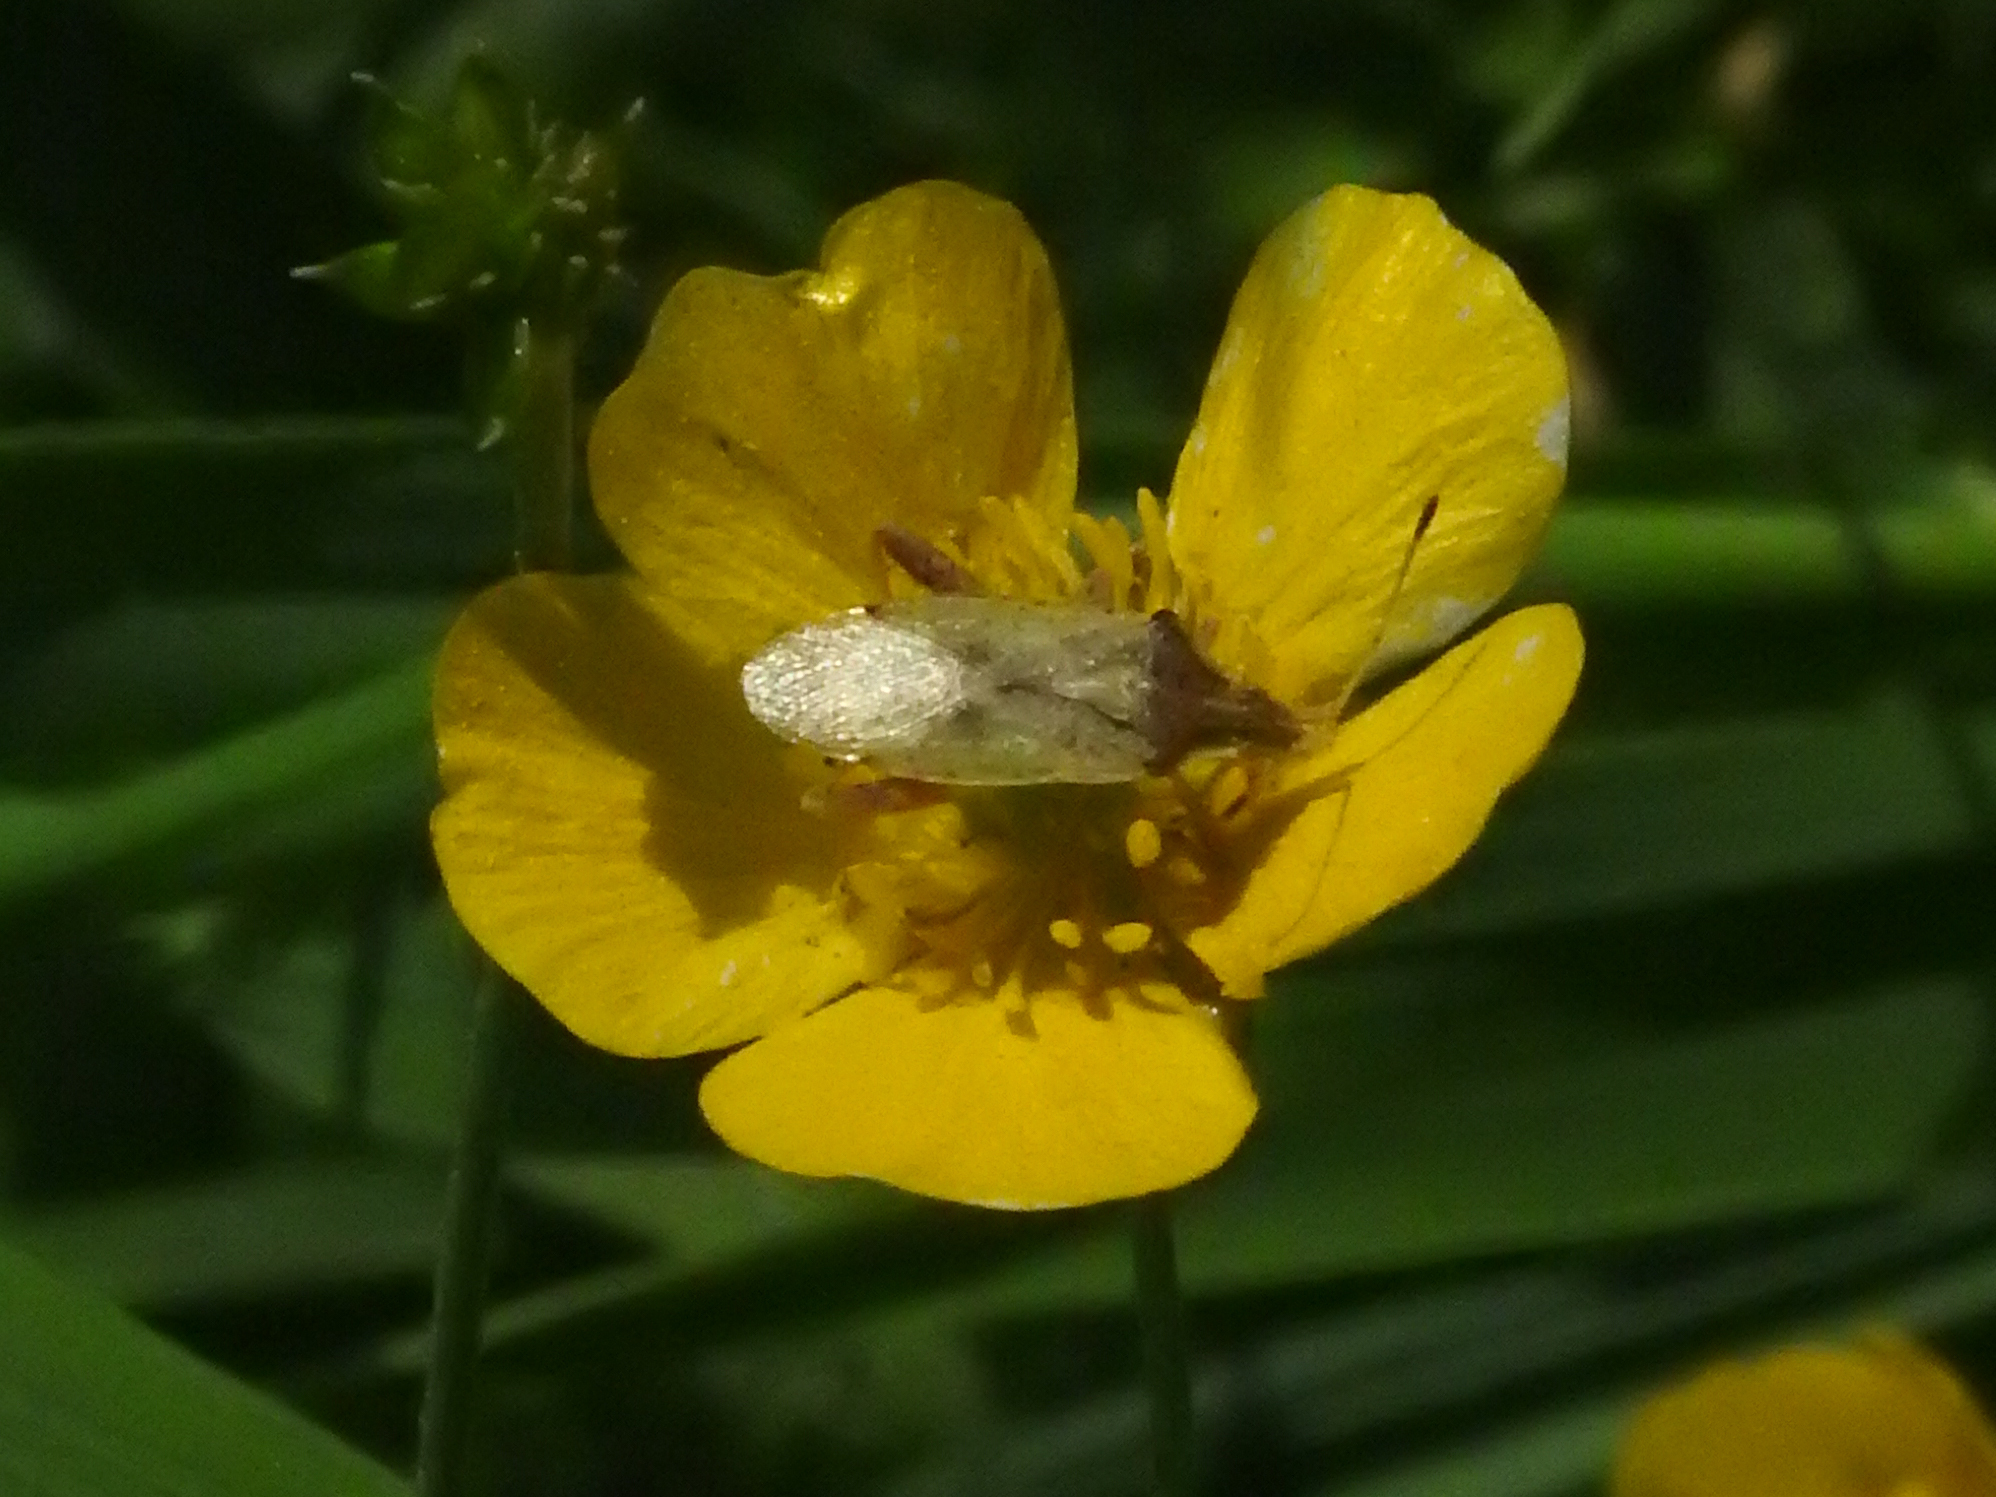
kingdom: Animalia
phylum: Arthropoda
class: Insecta
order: Hemiptera
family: Rhopalidae
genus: Harmostes
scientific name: Harmostes reflexulus
